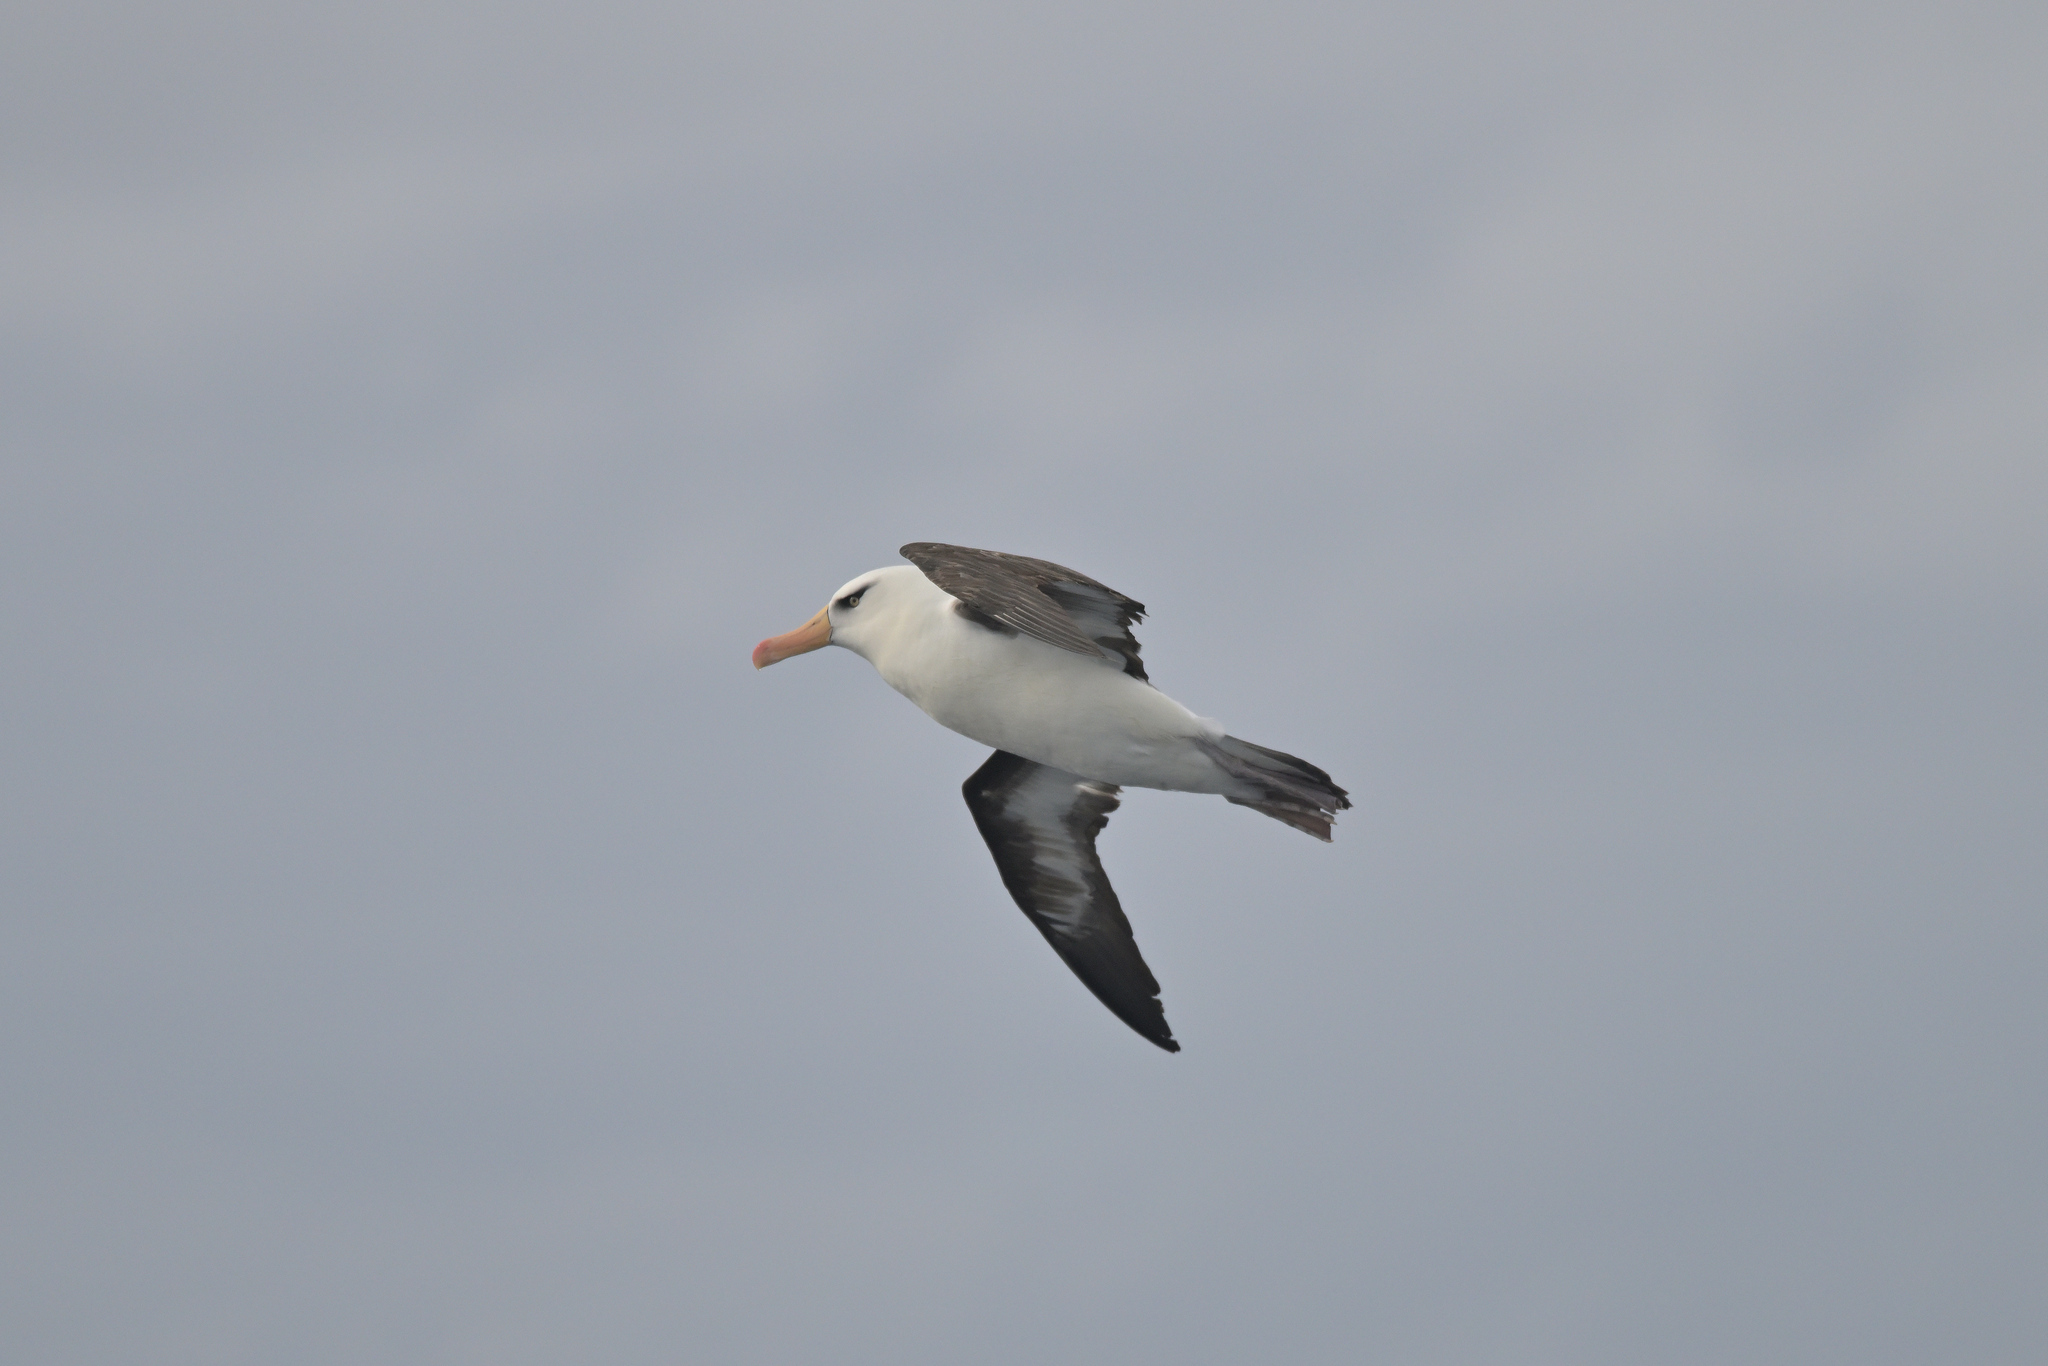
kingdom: Animalia
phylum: Chordata
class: Aves
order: Procellariiformes
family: Diomedeidae
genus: Thalassarche
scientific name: Thalassarche impavida
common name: Campbell albatross
